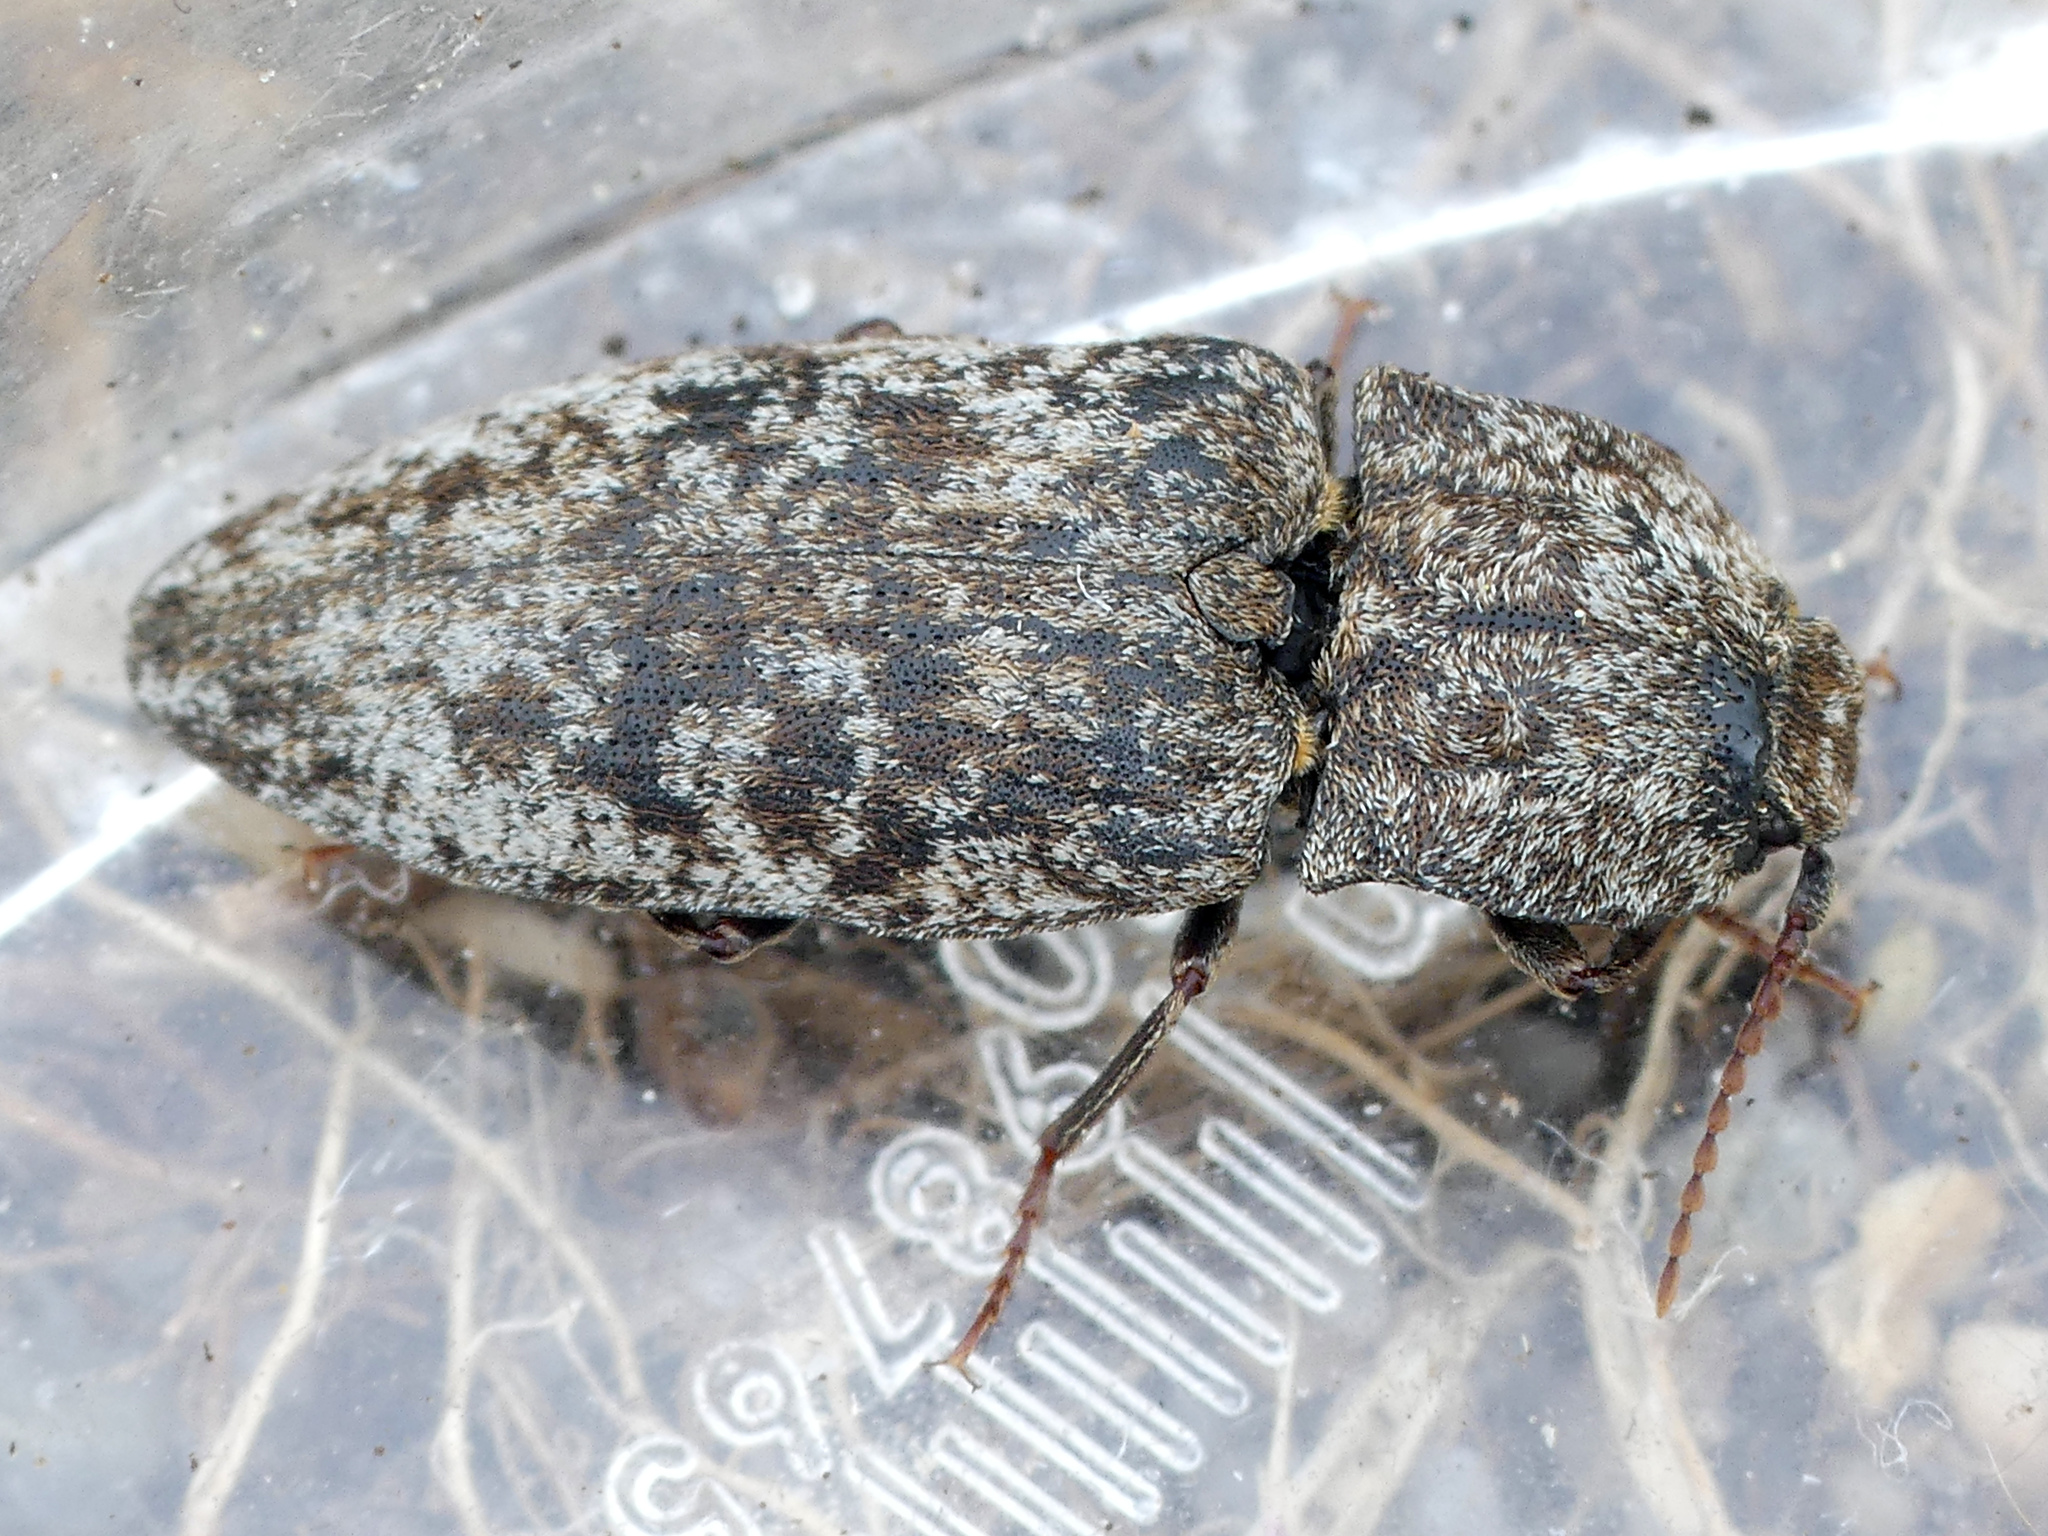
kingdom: Animalia
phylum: Arthropoda
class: Insecta
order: Coleoptera
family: Elateridae
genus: Agrypnus
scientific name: Agrypnus murinus
